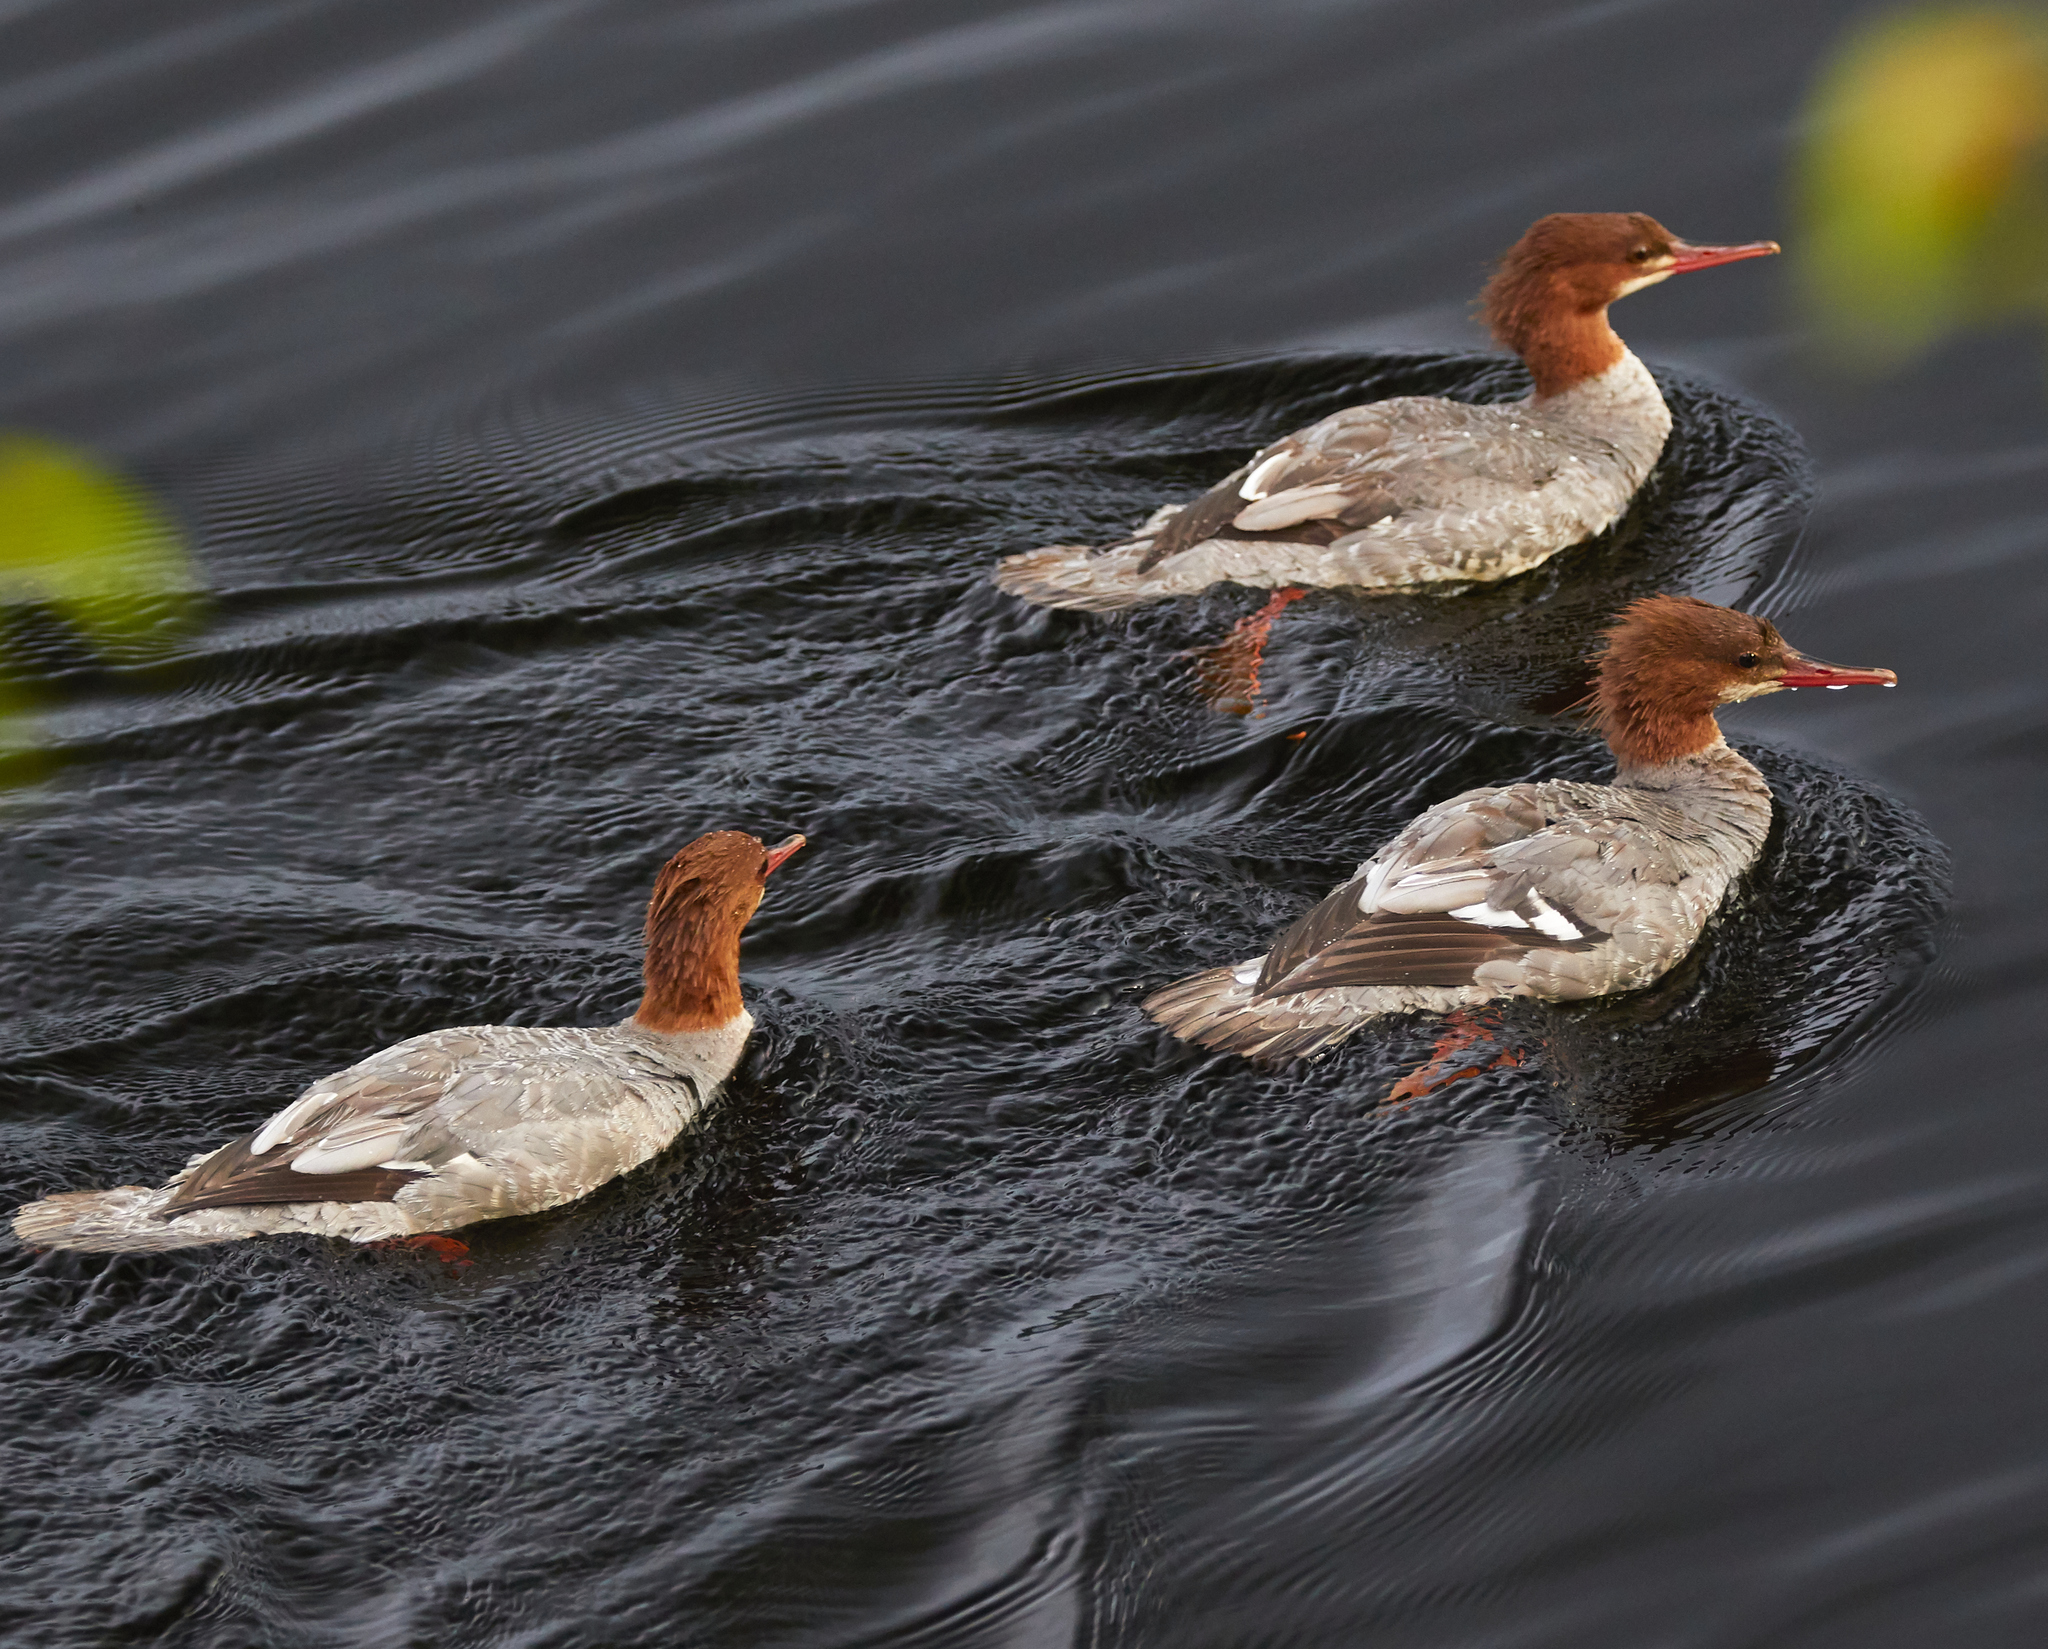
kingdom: Animalia
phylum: Chordata
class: Aves
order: Anseriformes
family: Anatidae
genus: Mergus
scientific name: Mergus merganser
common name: Common merganser
